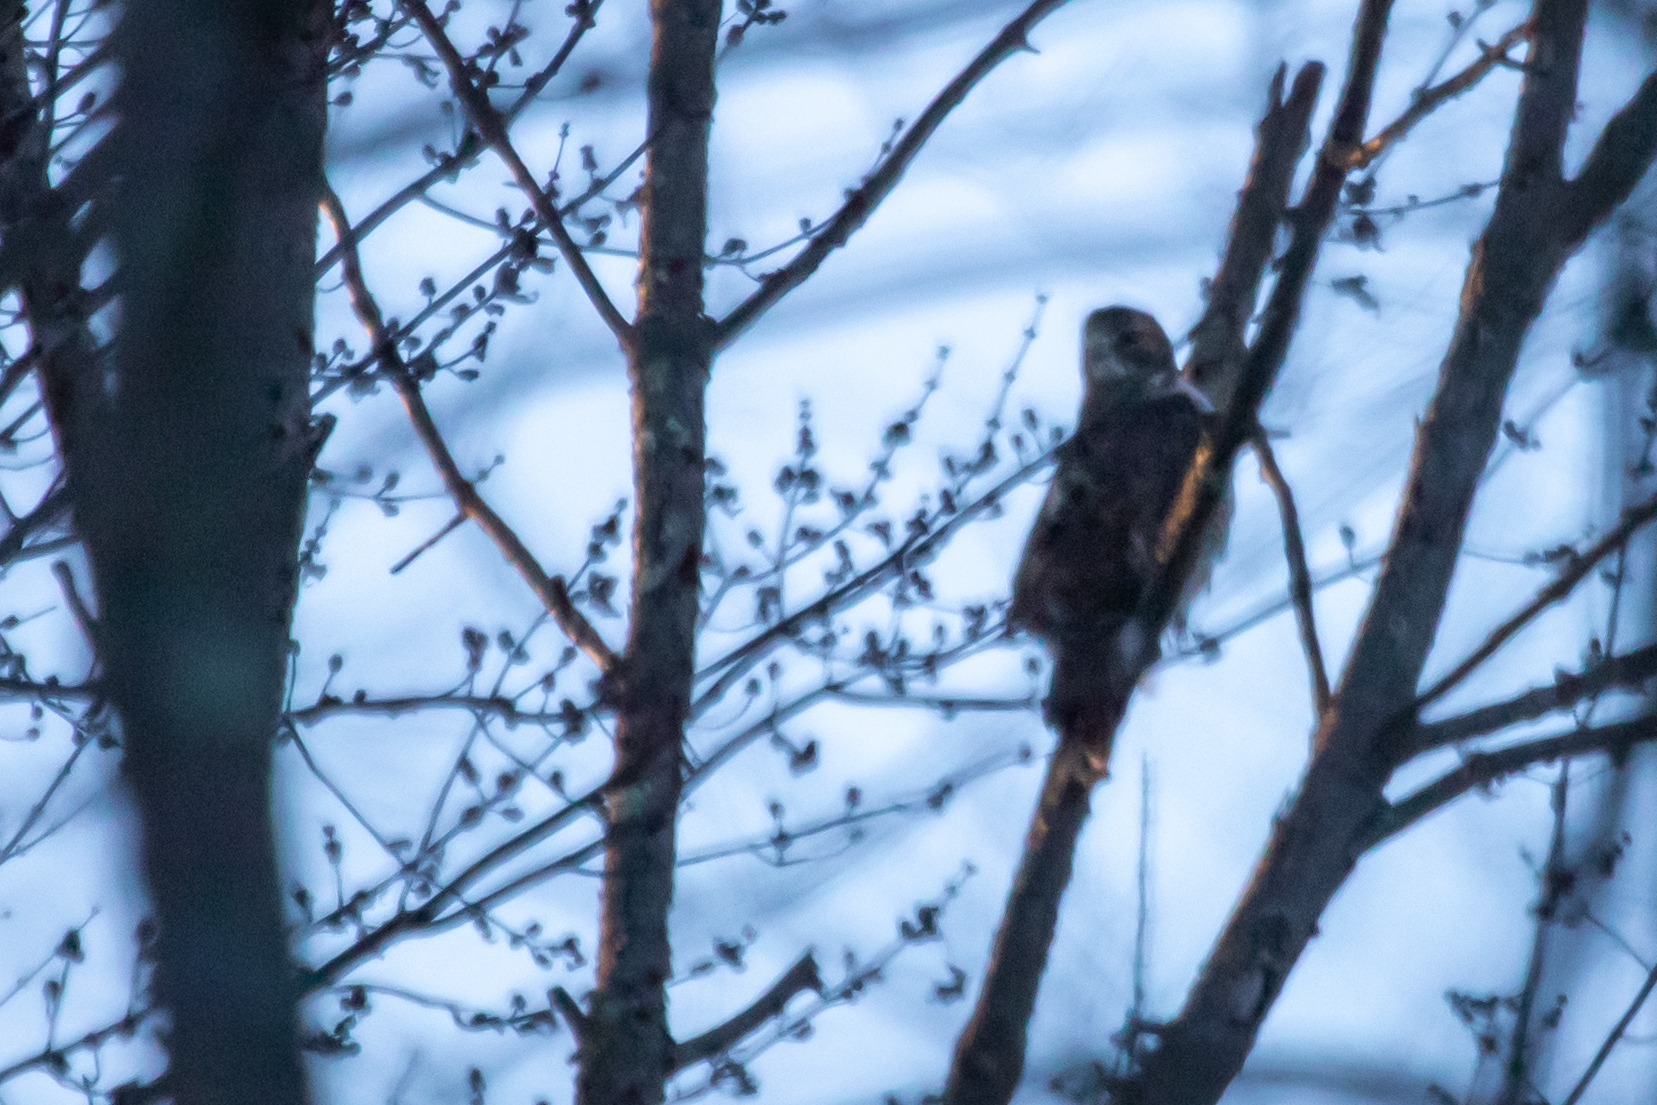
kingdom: Animalia
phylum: Chordata
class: Aves
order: Accipitriformes
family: Accipitridae
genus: Buteo
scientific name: Buteo jamaicensis
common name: Red-tailed hawk
